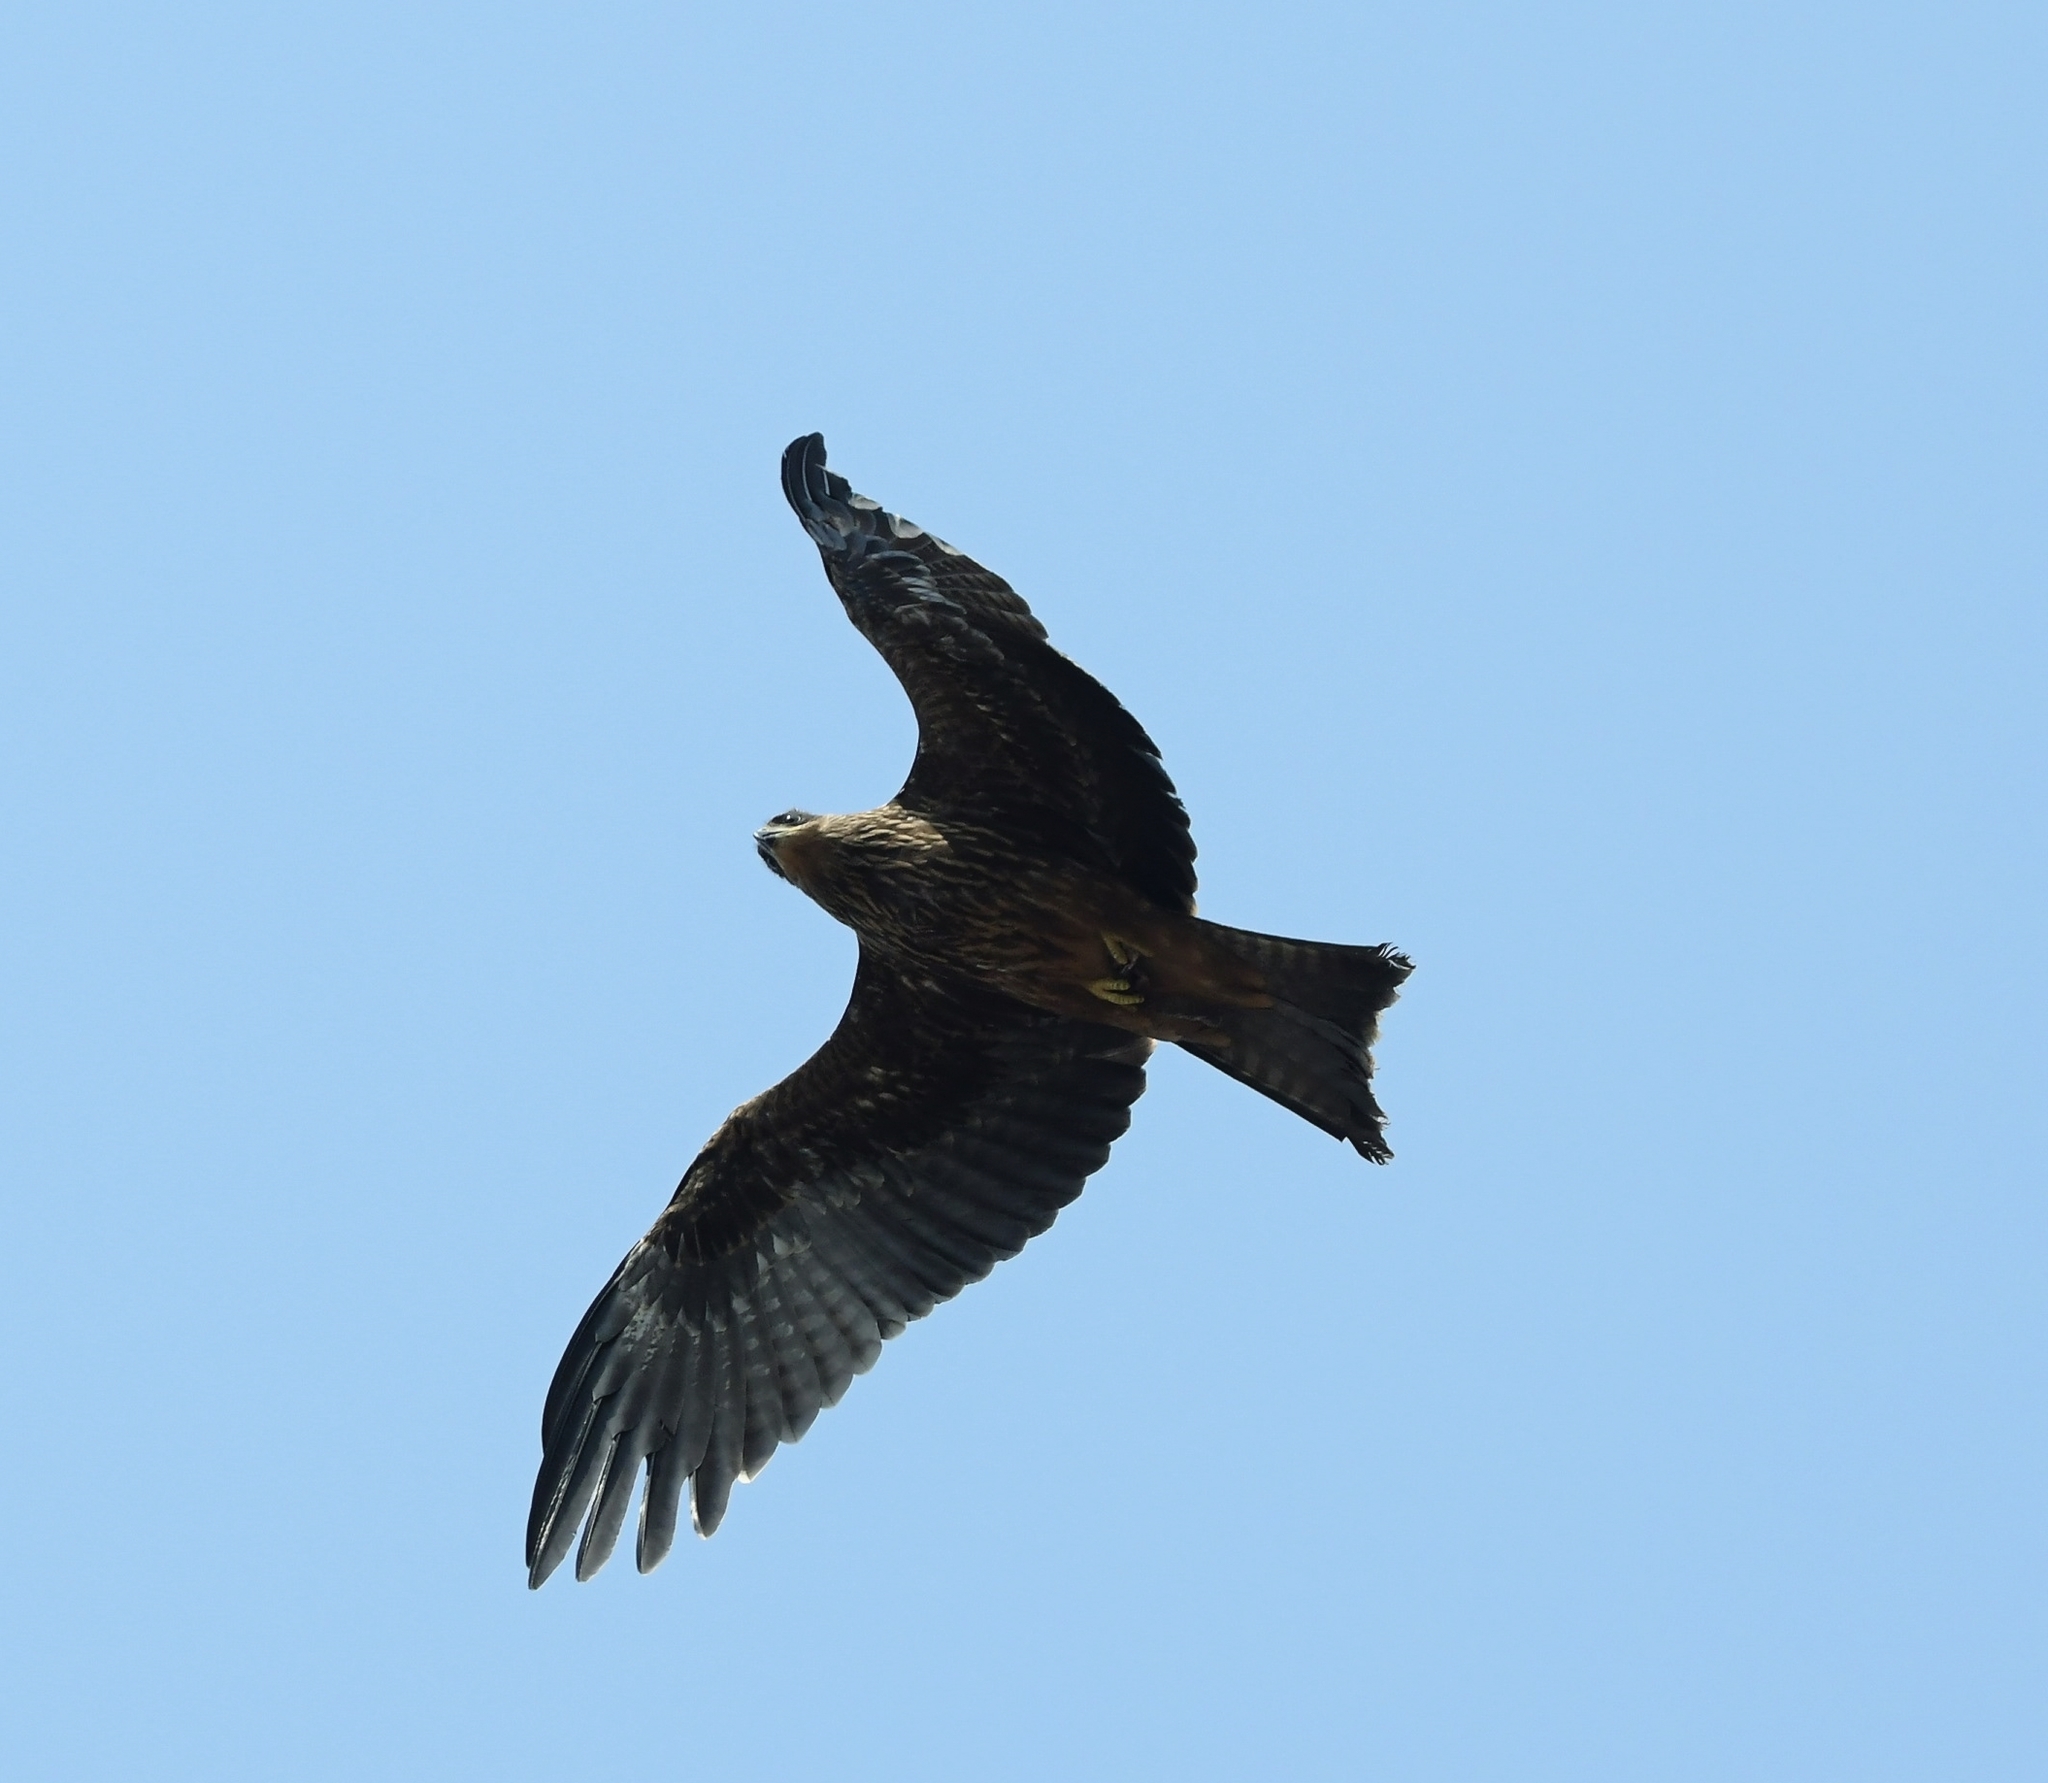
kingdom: Animalia
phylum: Chordata
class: Aves
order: Accipitriformes
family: Accipitridae
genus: Milvus
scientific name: Milvus migrans
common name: Black kite
